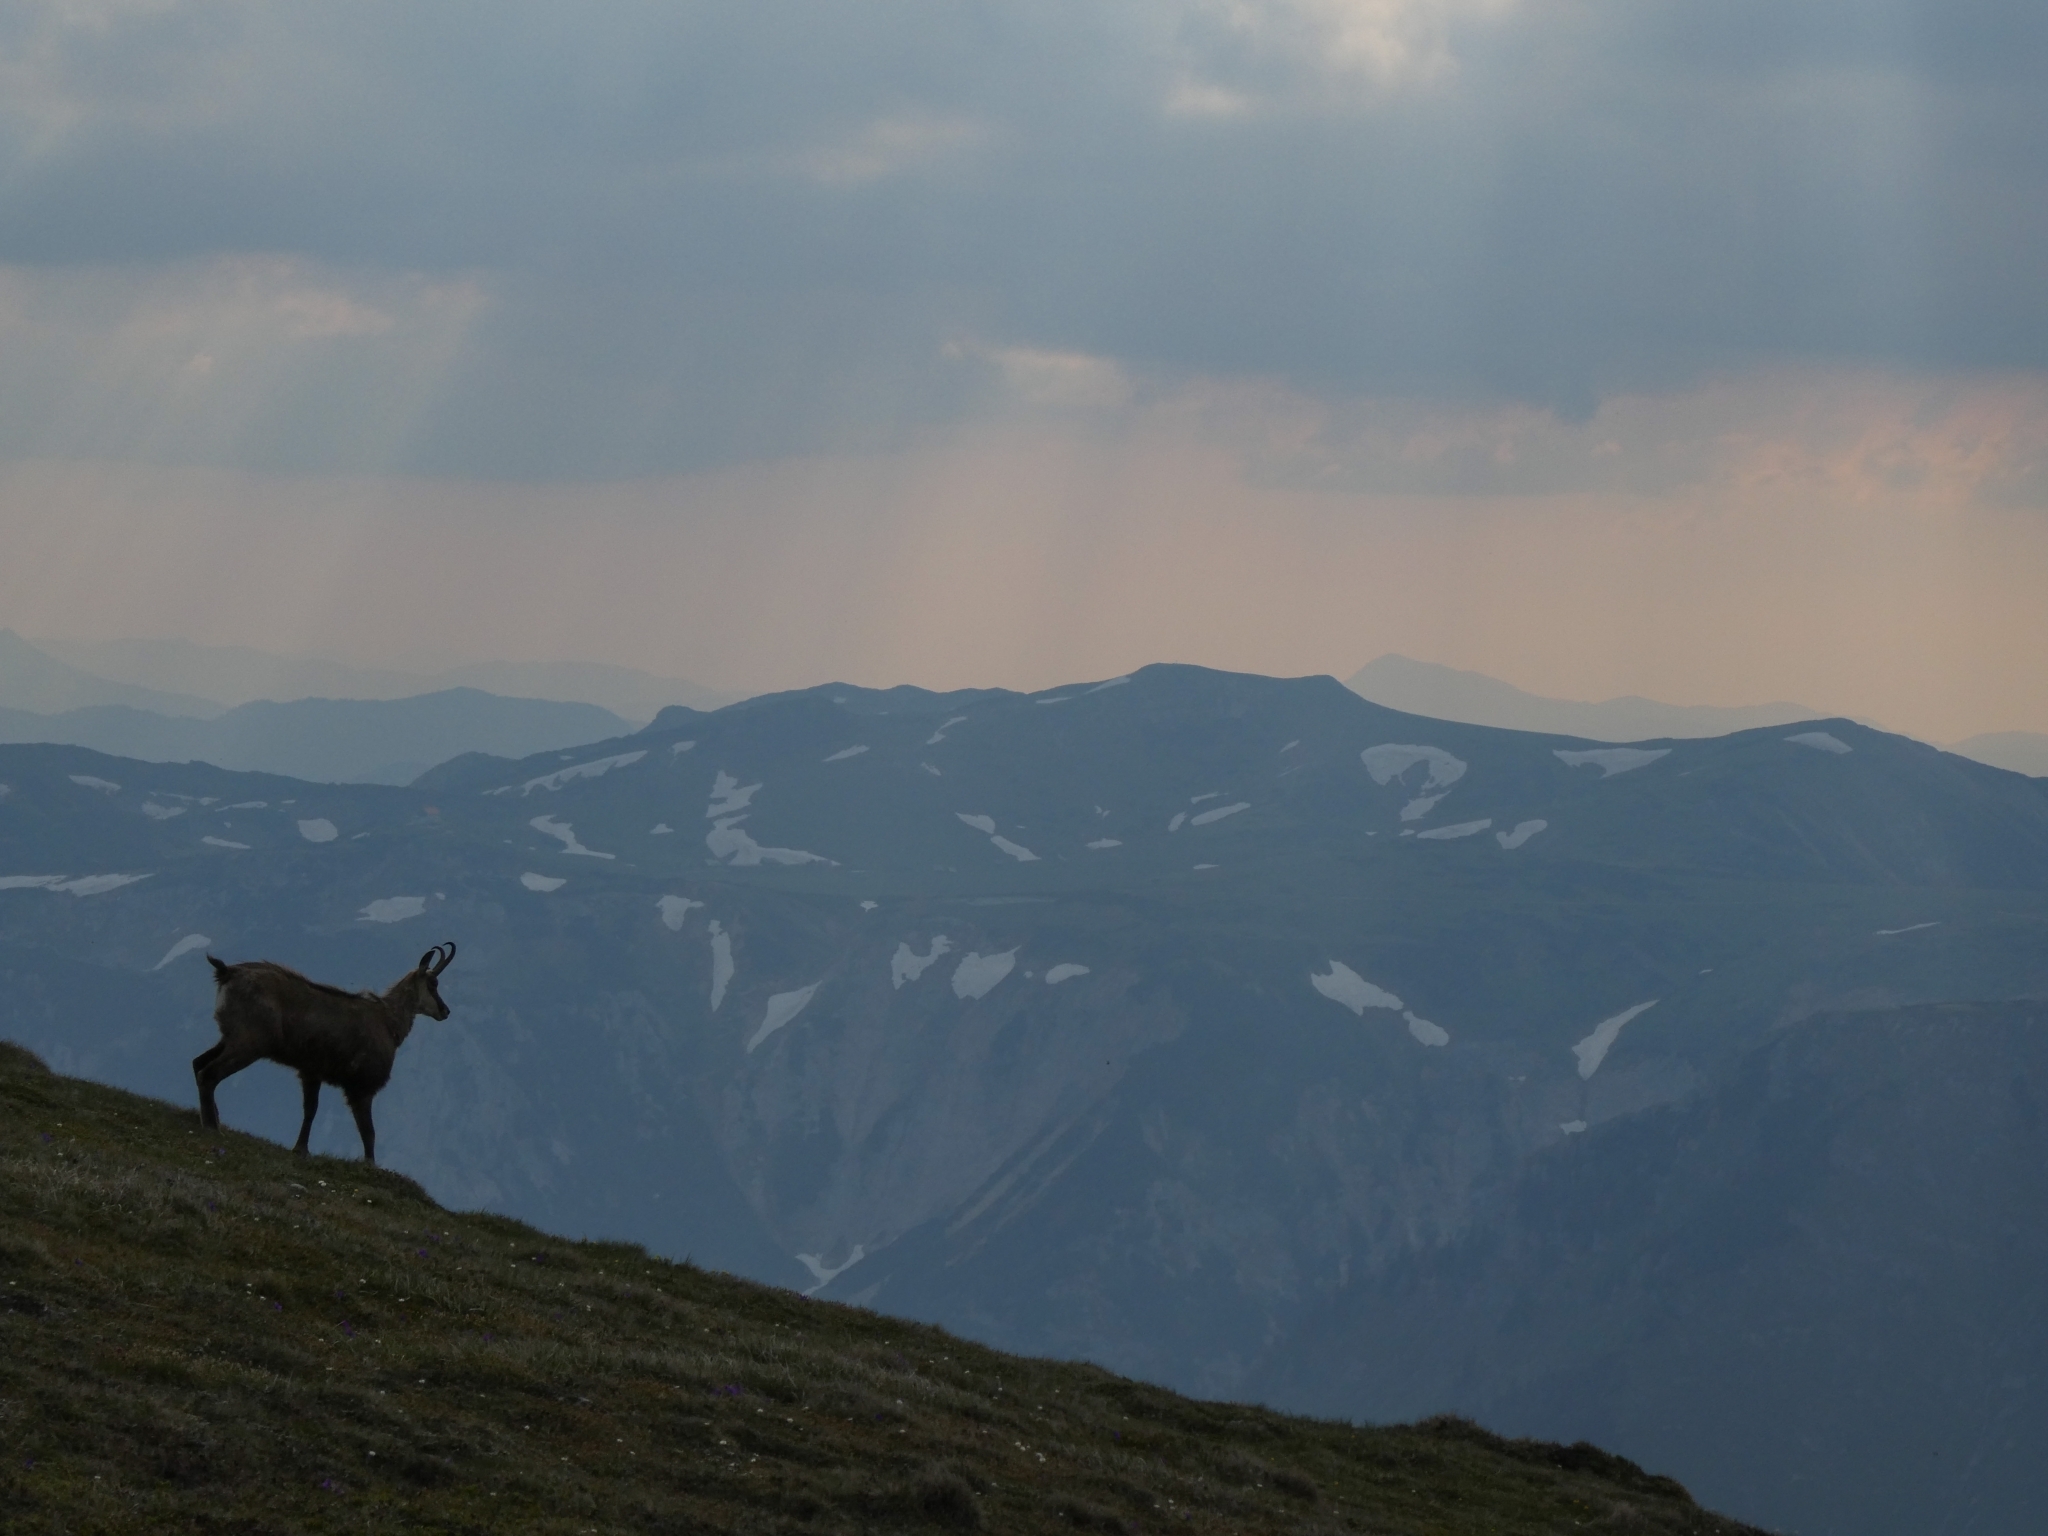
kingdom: Animalia
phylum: Chordata
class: Mammalia
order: Artiodactyla
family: Bovidae
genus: Rupicapra
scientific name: Rupicapra rupicapra
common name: Chamois
